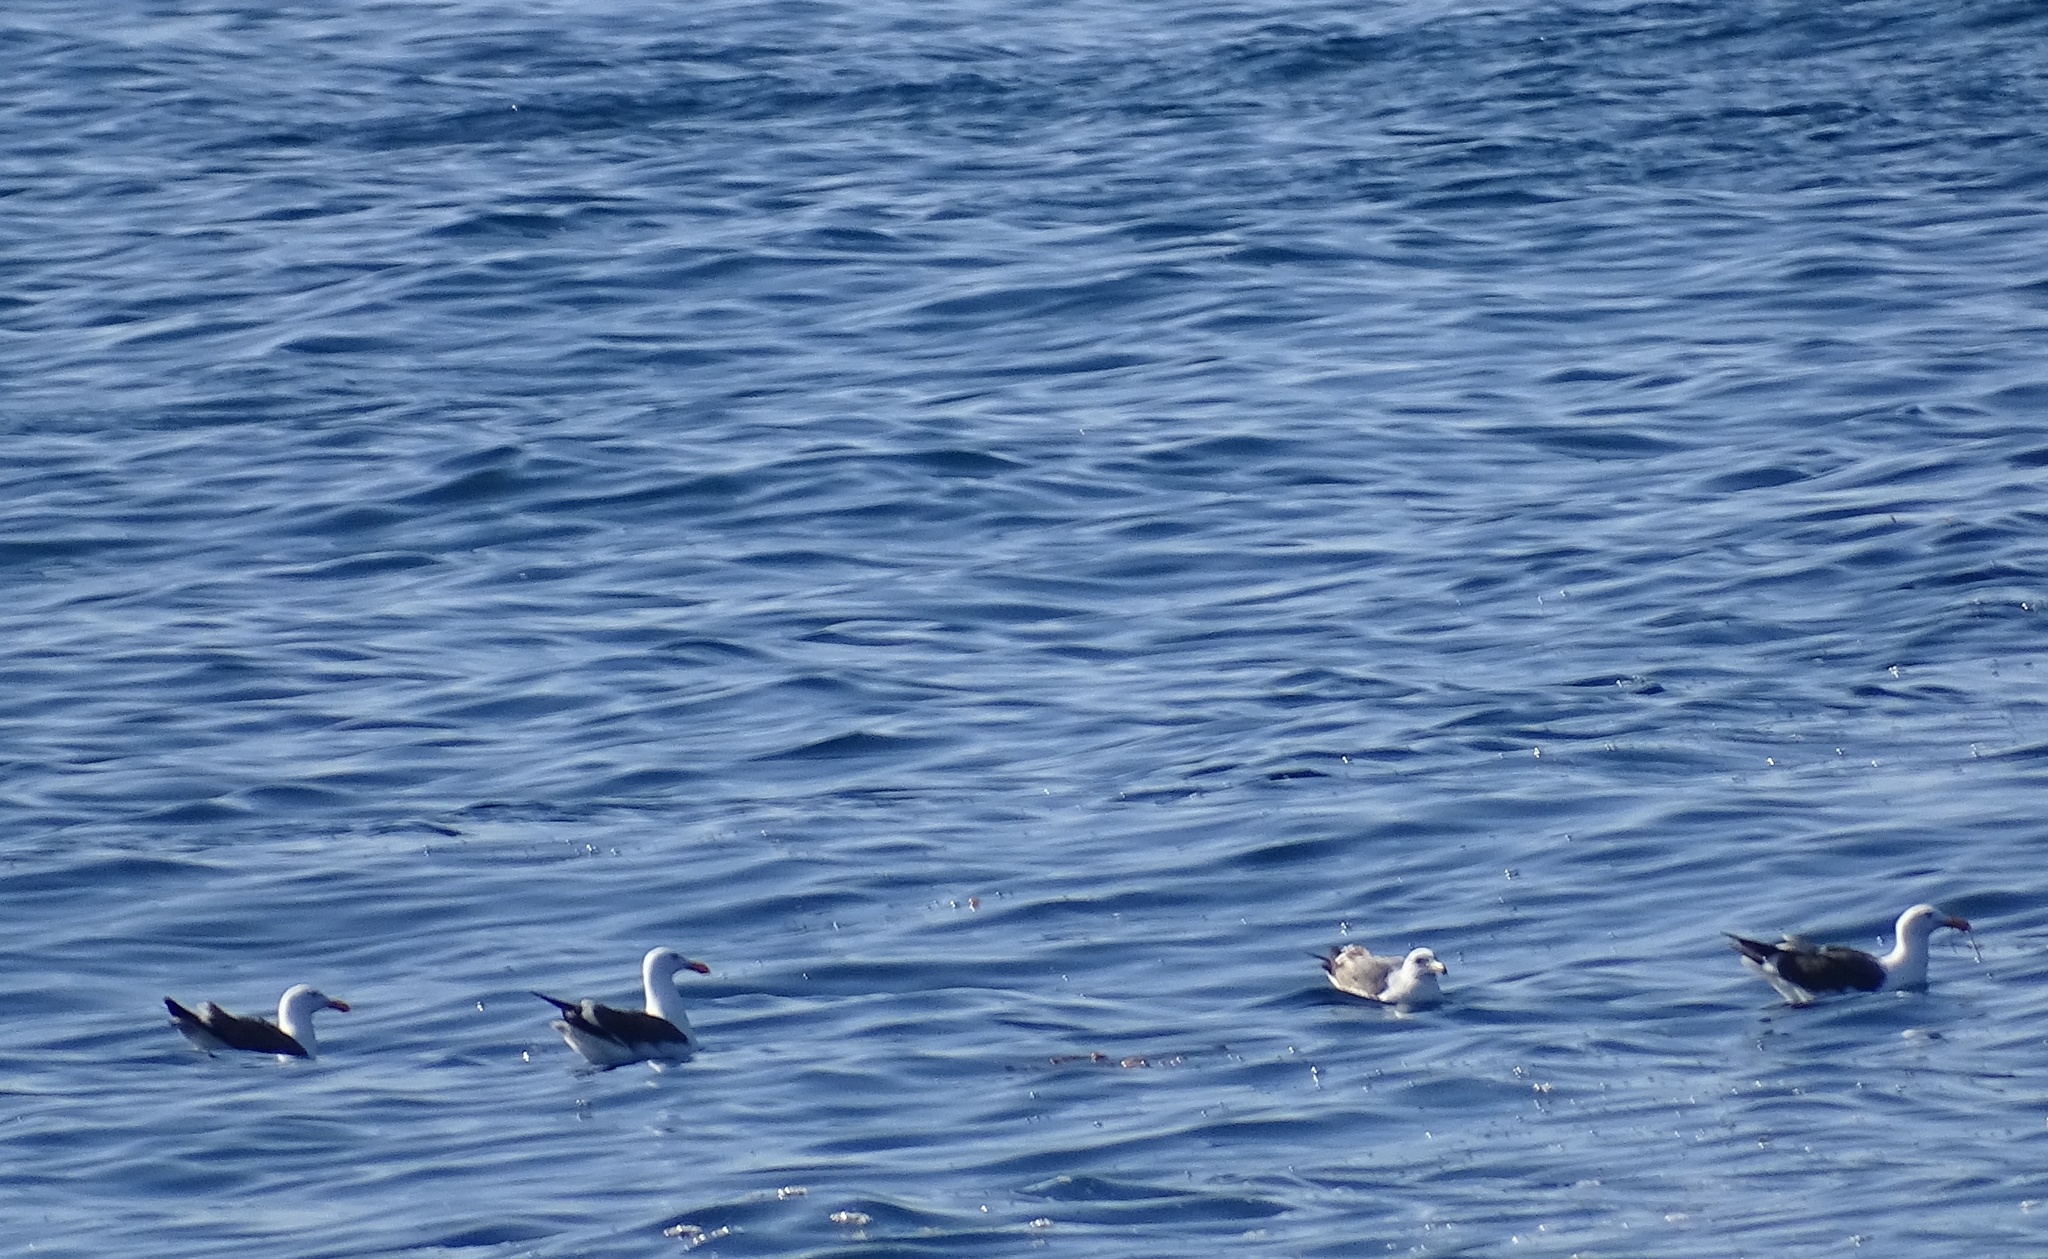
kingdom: Animalia
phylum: Chordata
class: Aves
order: Charadriiformes
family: Laridae
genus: Larus
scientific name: Larus occidentalis
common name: Western gull
